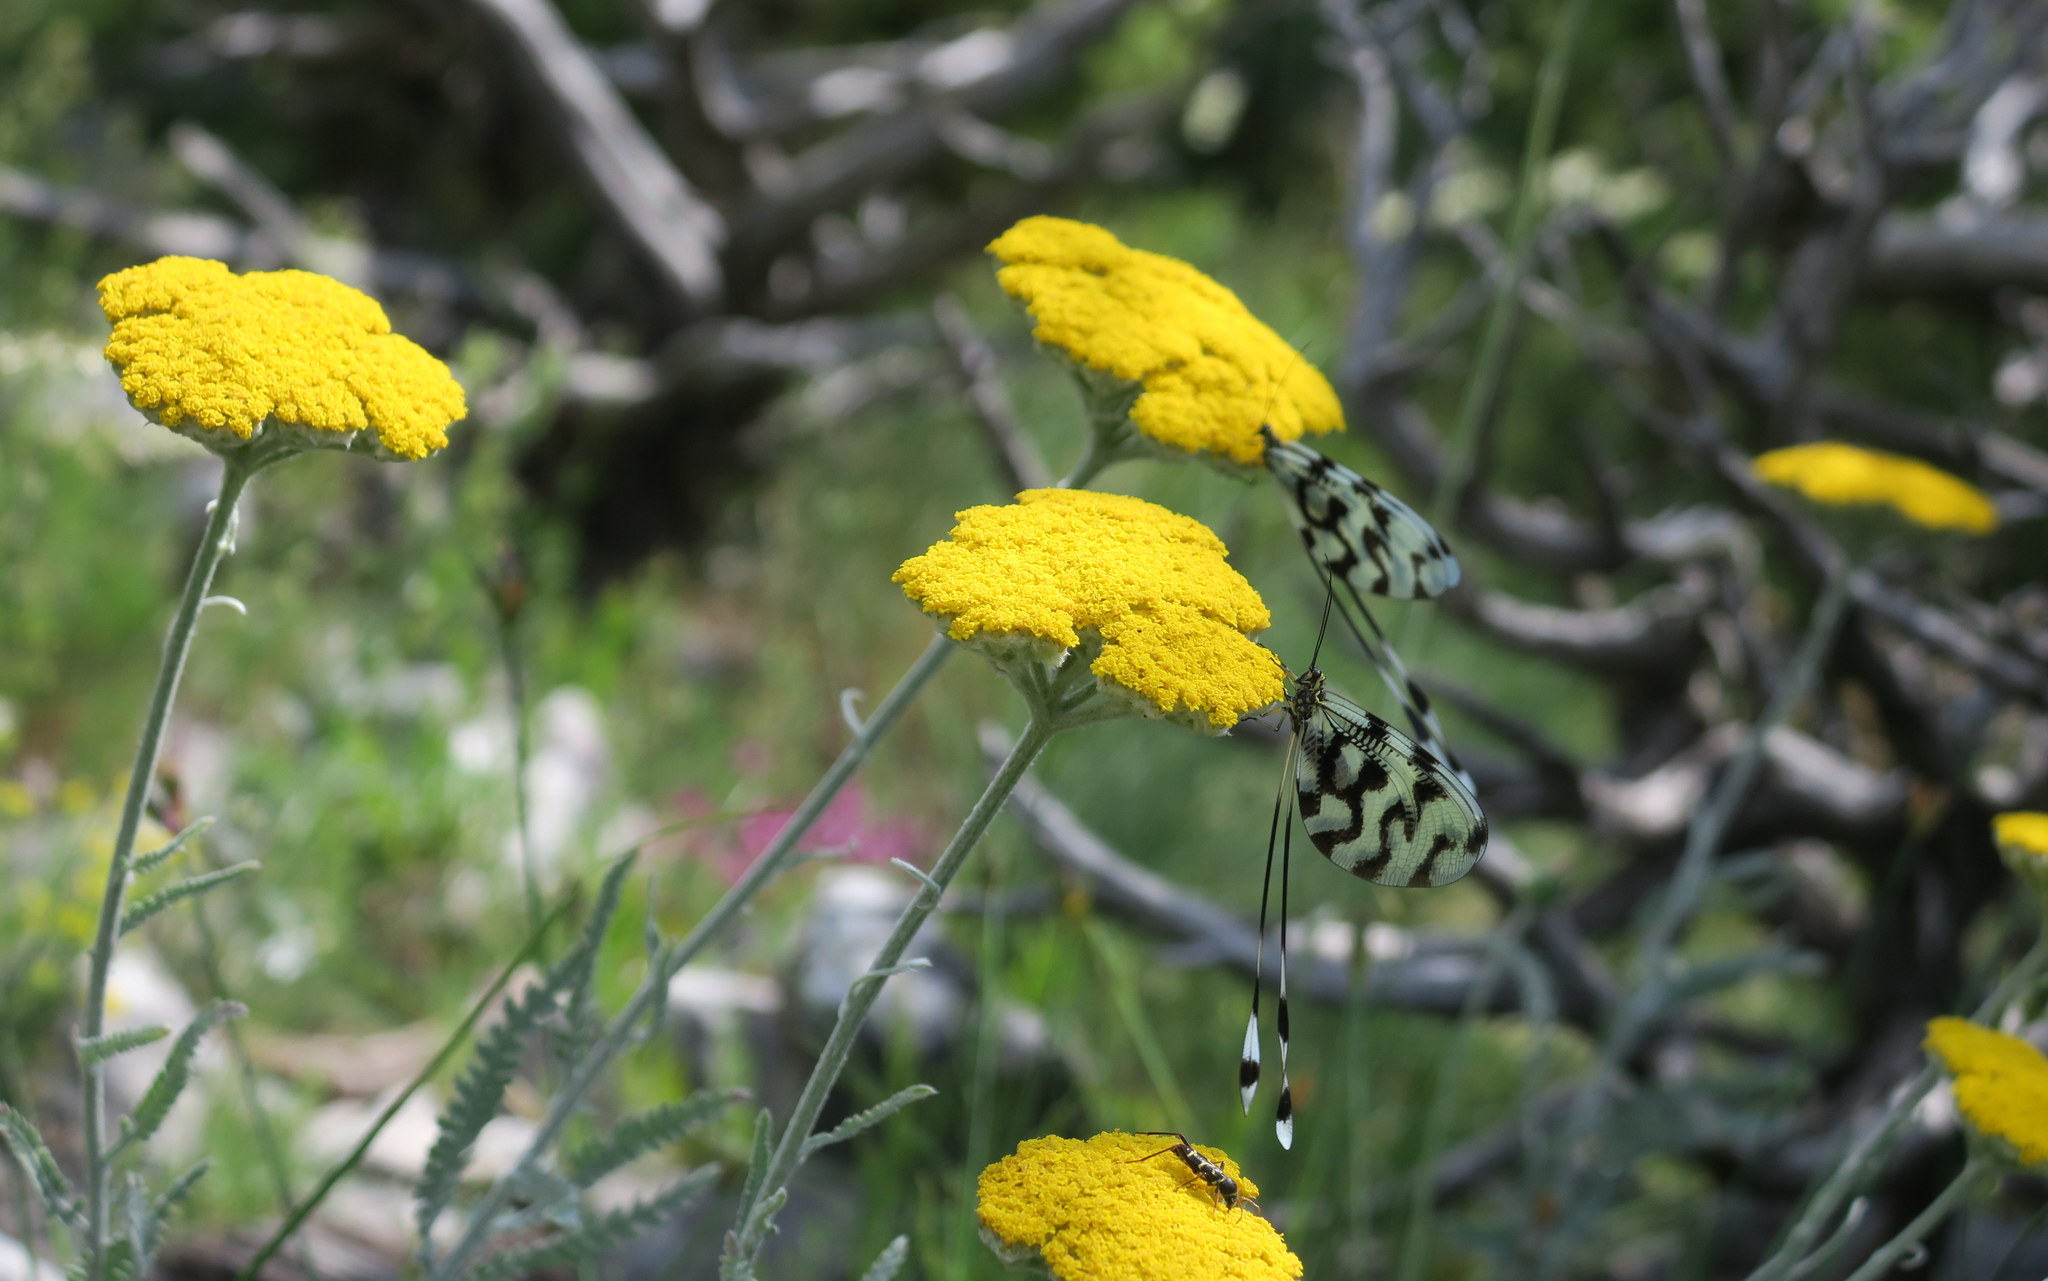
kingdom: Animalia
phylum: Arthropoda
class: Insecta
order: Neuroptera
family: Nemopteridae
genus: Nemoptera
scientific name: Nemoptera sinuata
